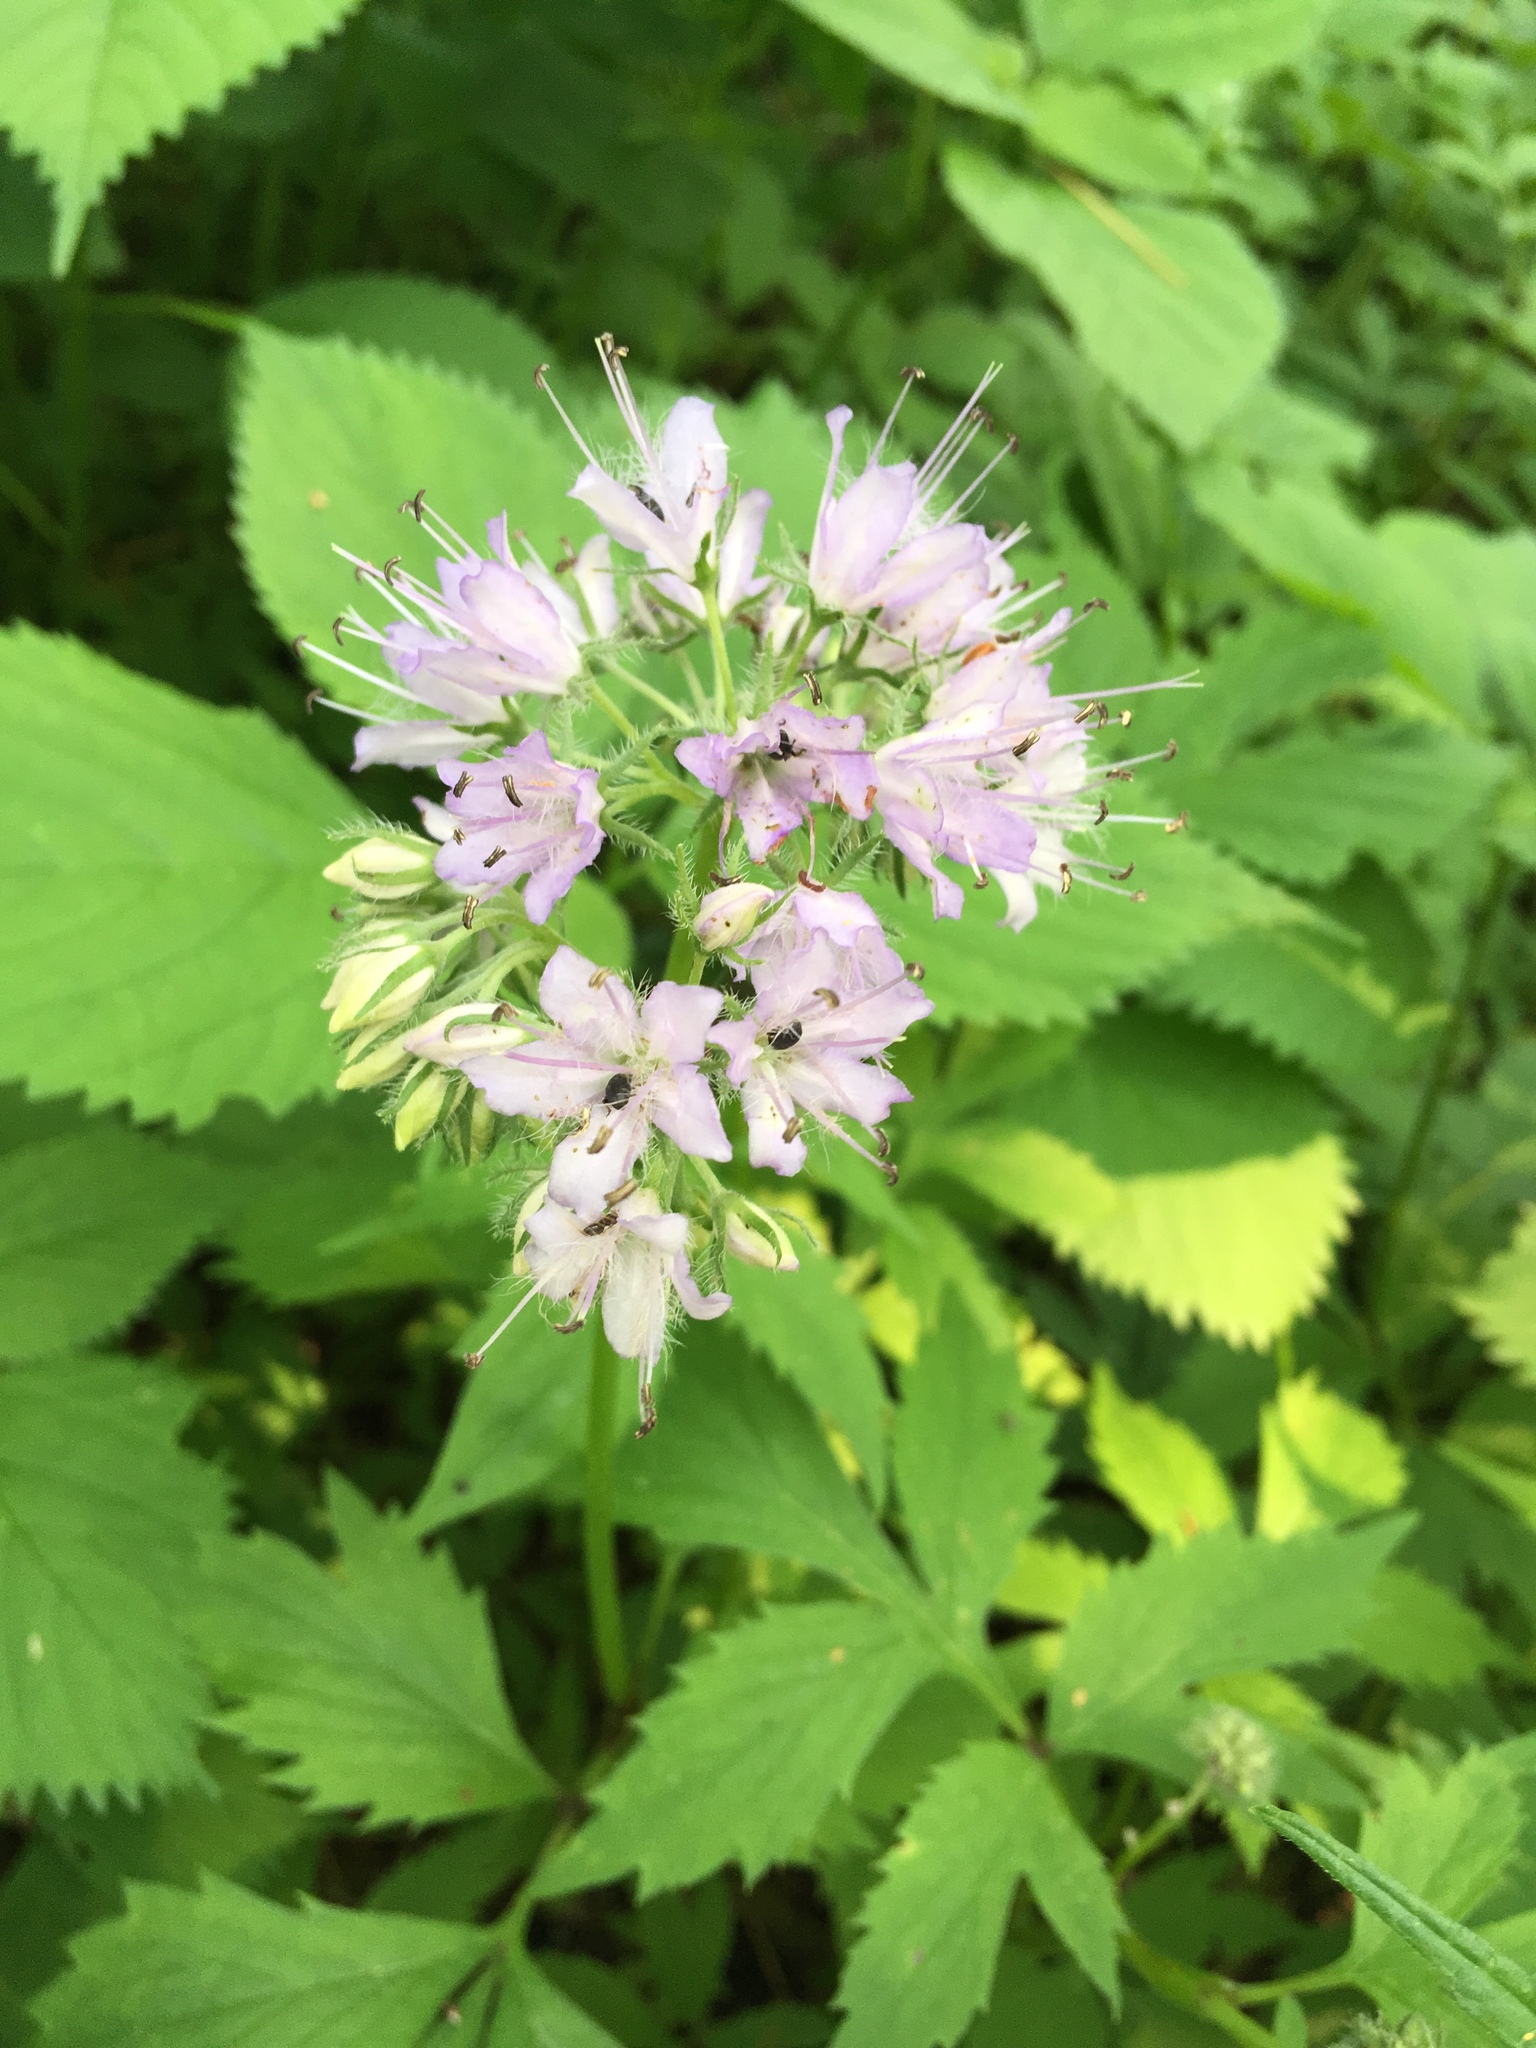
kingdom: Plantae
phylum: Tracheophyta
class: Magnoliopsida
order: Boraginales
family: Hydrophyllaceae
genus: Hydrophyllum
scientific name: Hydrophyllum virginianum
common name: Virginia waterleaf
